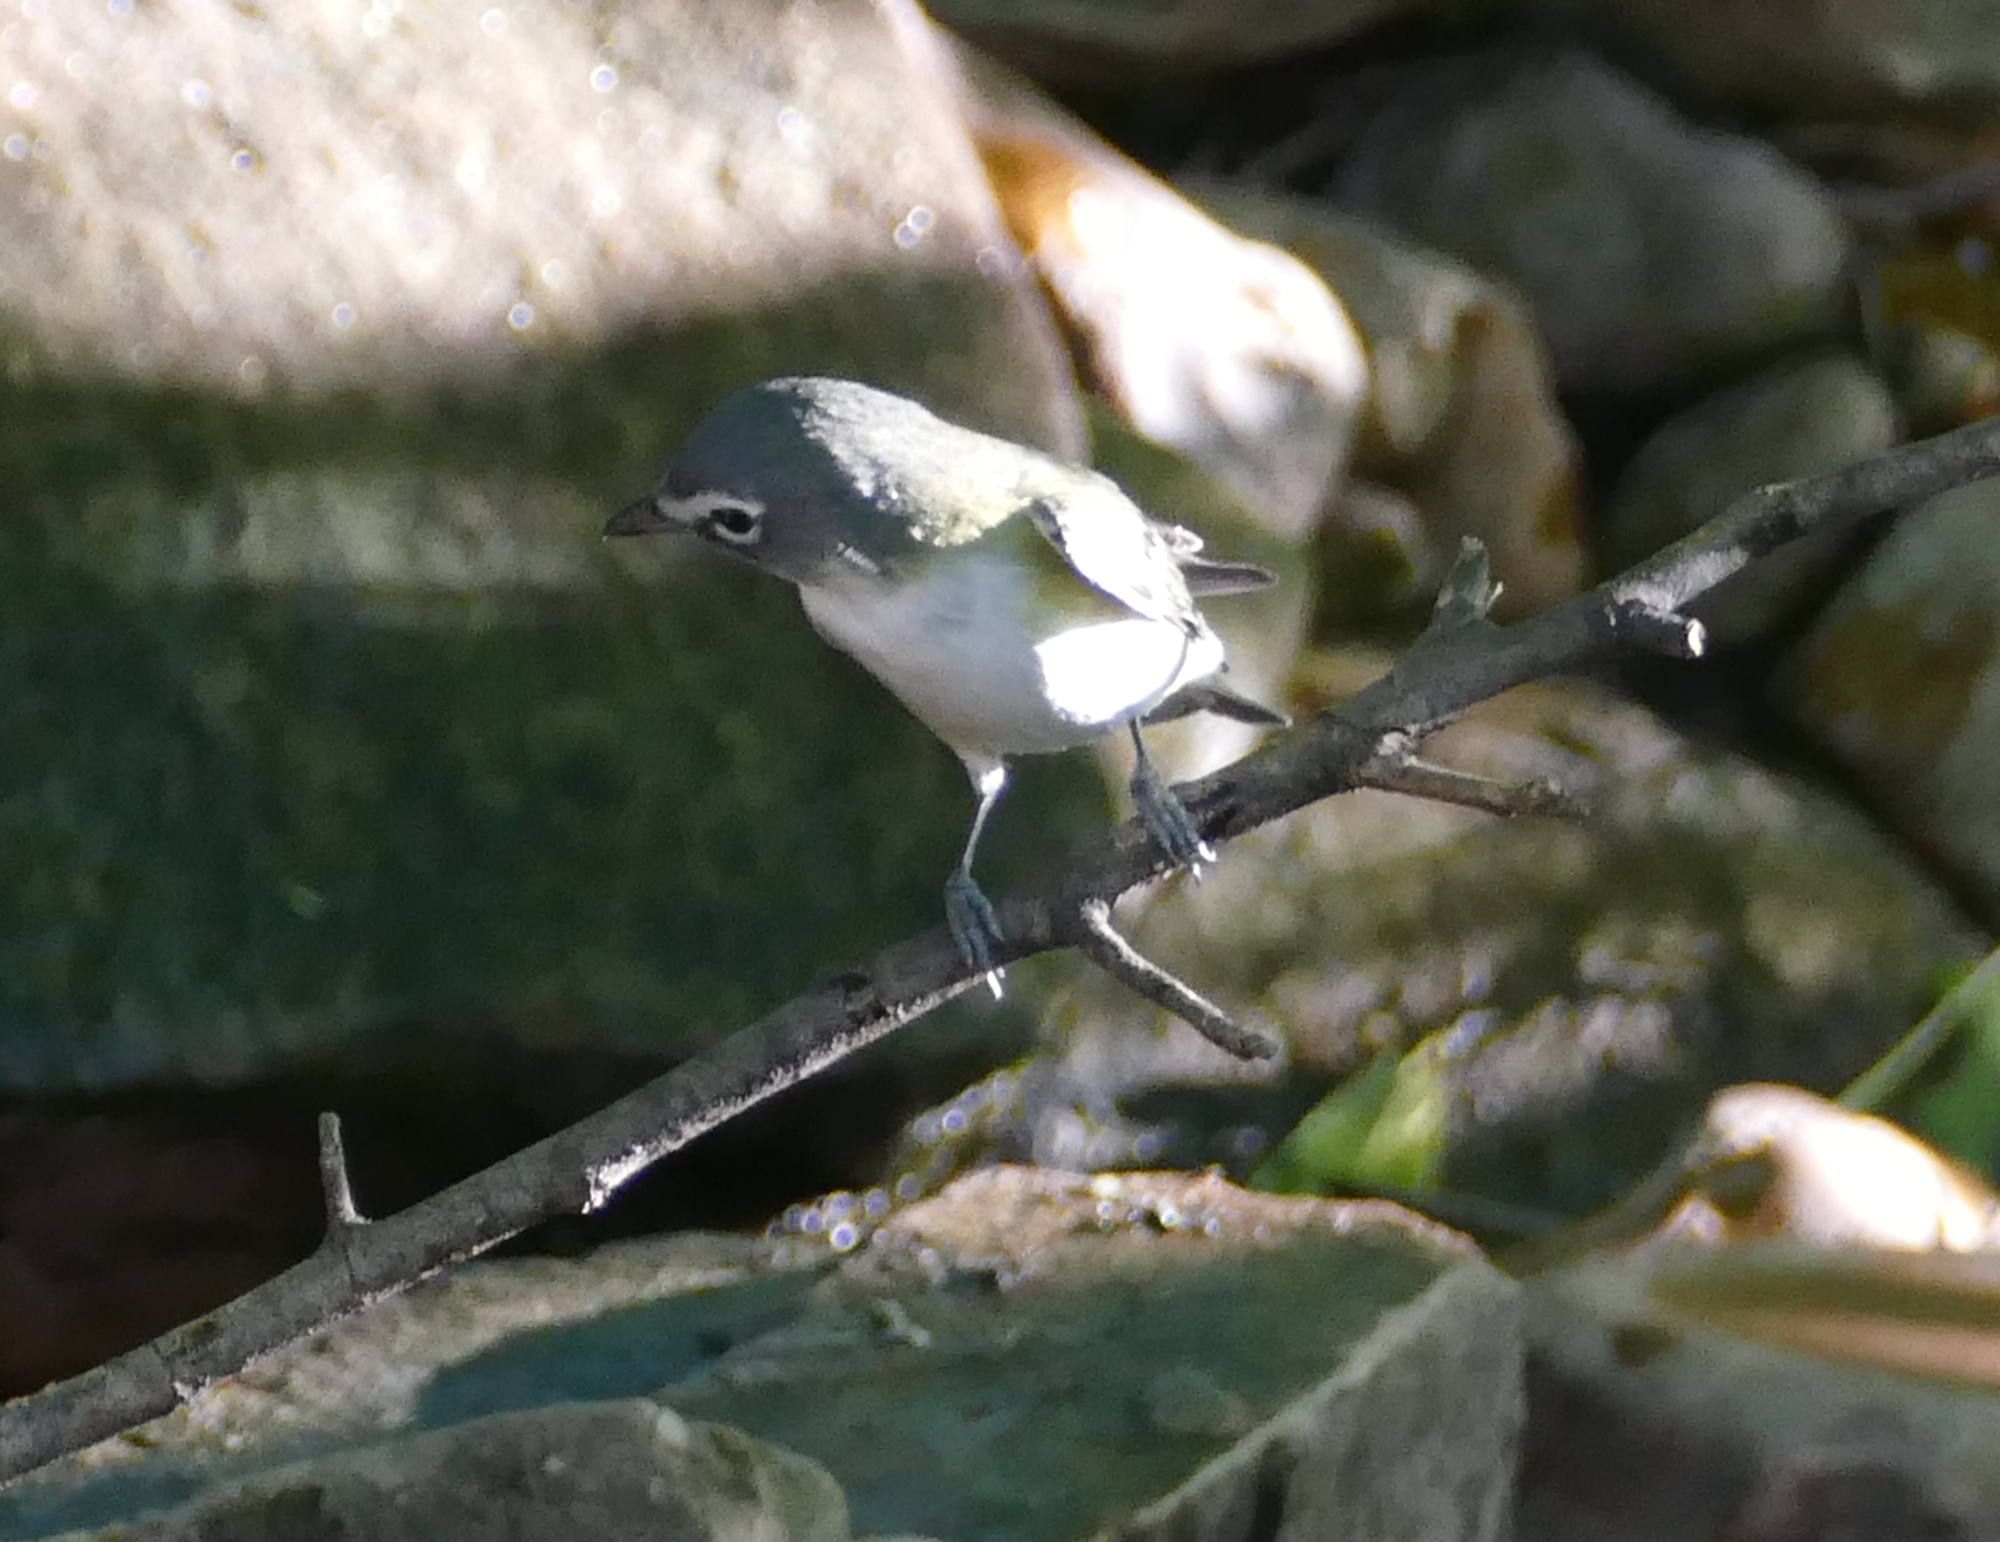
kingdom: Animalia
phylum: Chordata
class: Aves
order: Passeriformes
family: Vireonidae
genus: Vireo
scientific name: Vireo solitarius
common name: Blue-headed vireo
